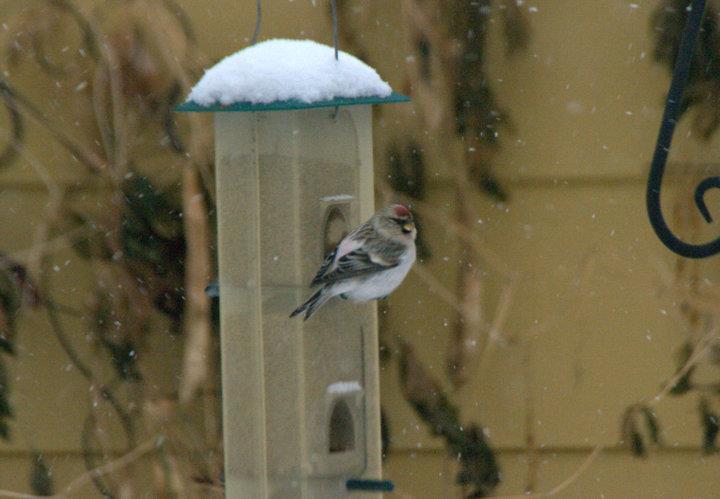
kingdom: Animalia
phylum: Chordata
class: Aves
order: Passeriformes
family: Fringillidae
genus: Acanthis
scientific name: Acanthis hornemanni
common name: Arctic redpoll
